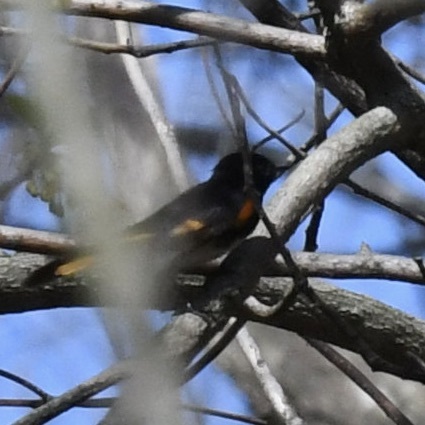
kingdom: Animalia
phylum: Chordata
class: Aves
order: Passeriformes
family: Parulidae
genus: Setophaga
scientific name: Setophaga ruticilla
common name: American redstart
